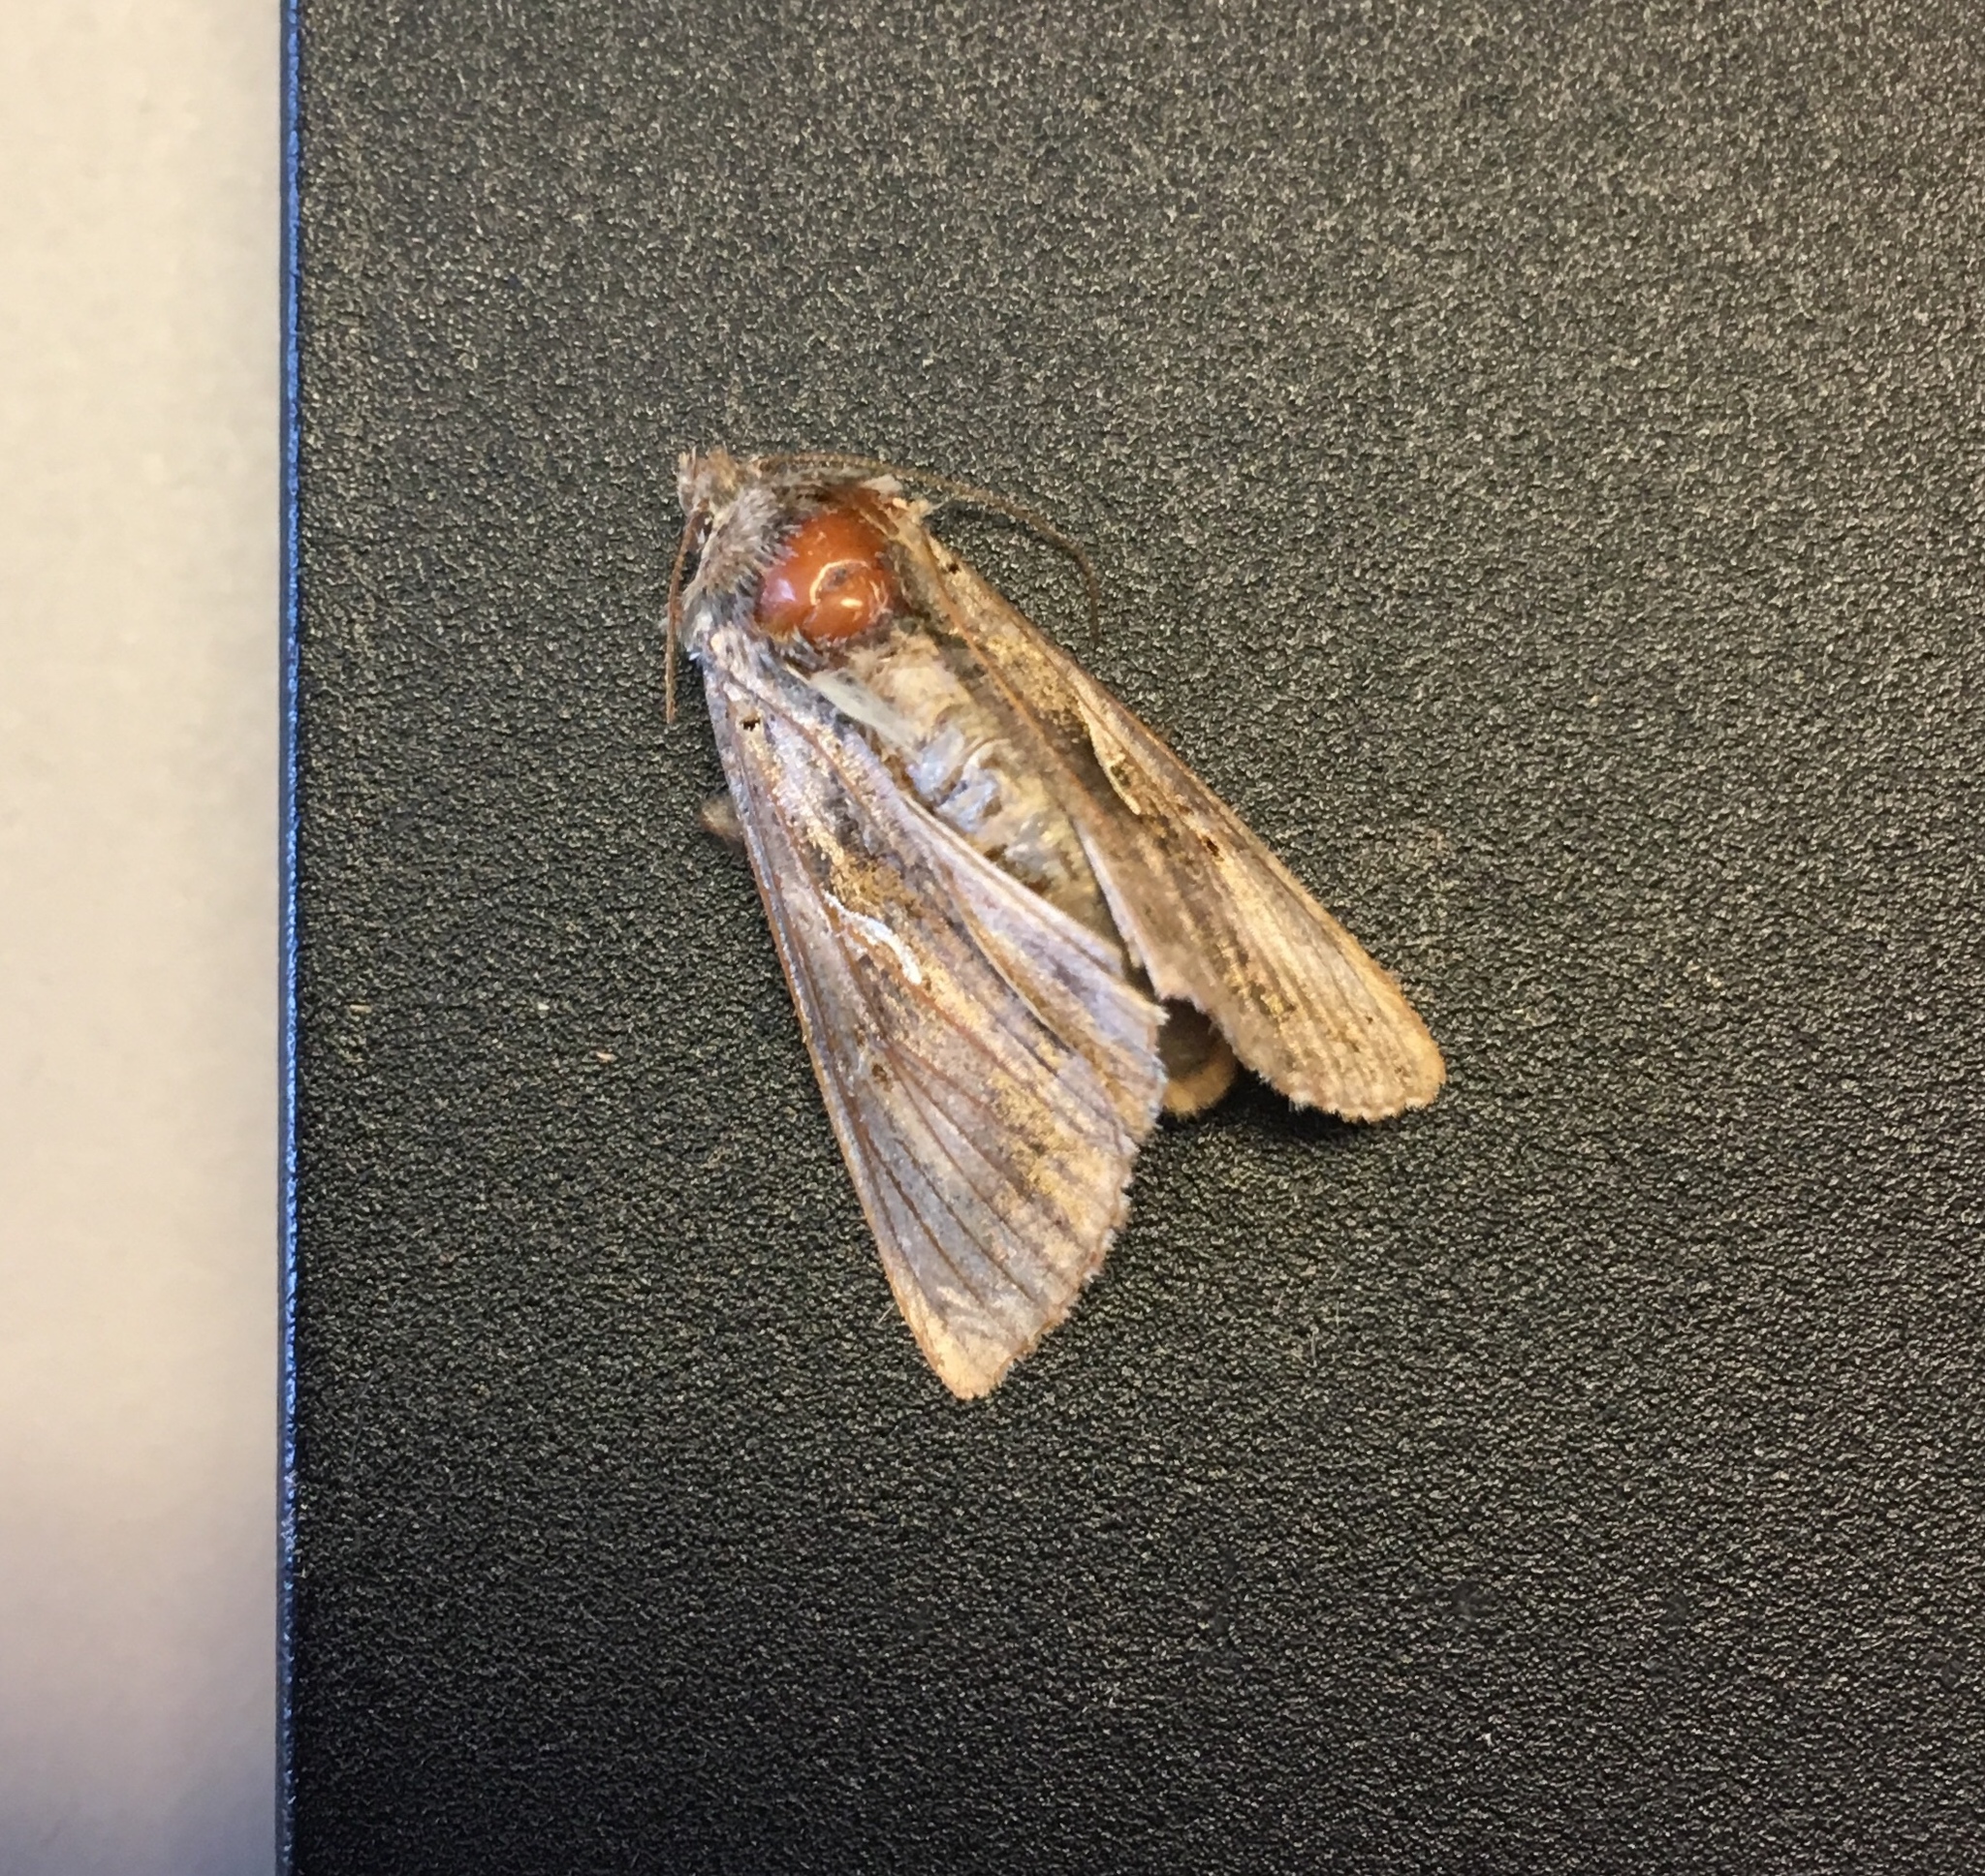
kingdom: Animalia
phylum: Arthropoda
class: Insecta
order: Lepidoptera
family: Noctuidae
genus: Autographa
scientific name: Autographa gamma
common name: Silver y
